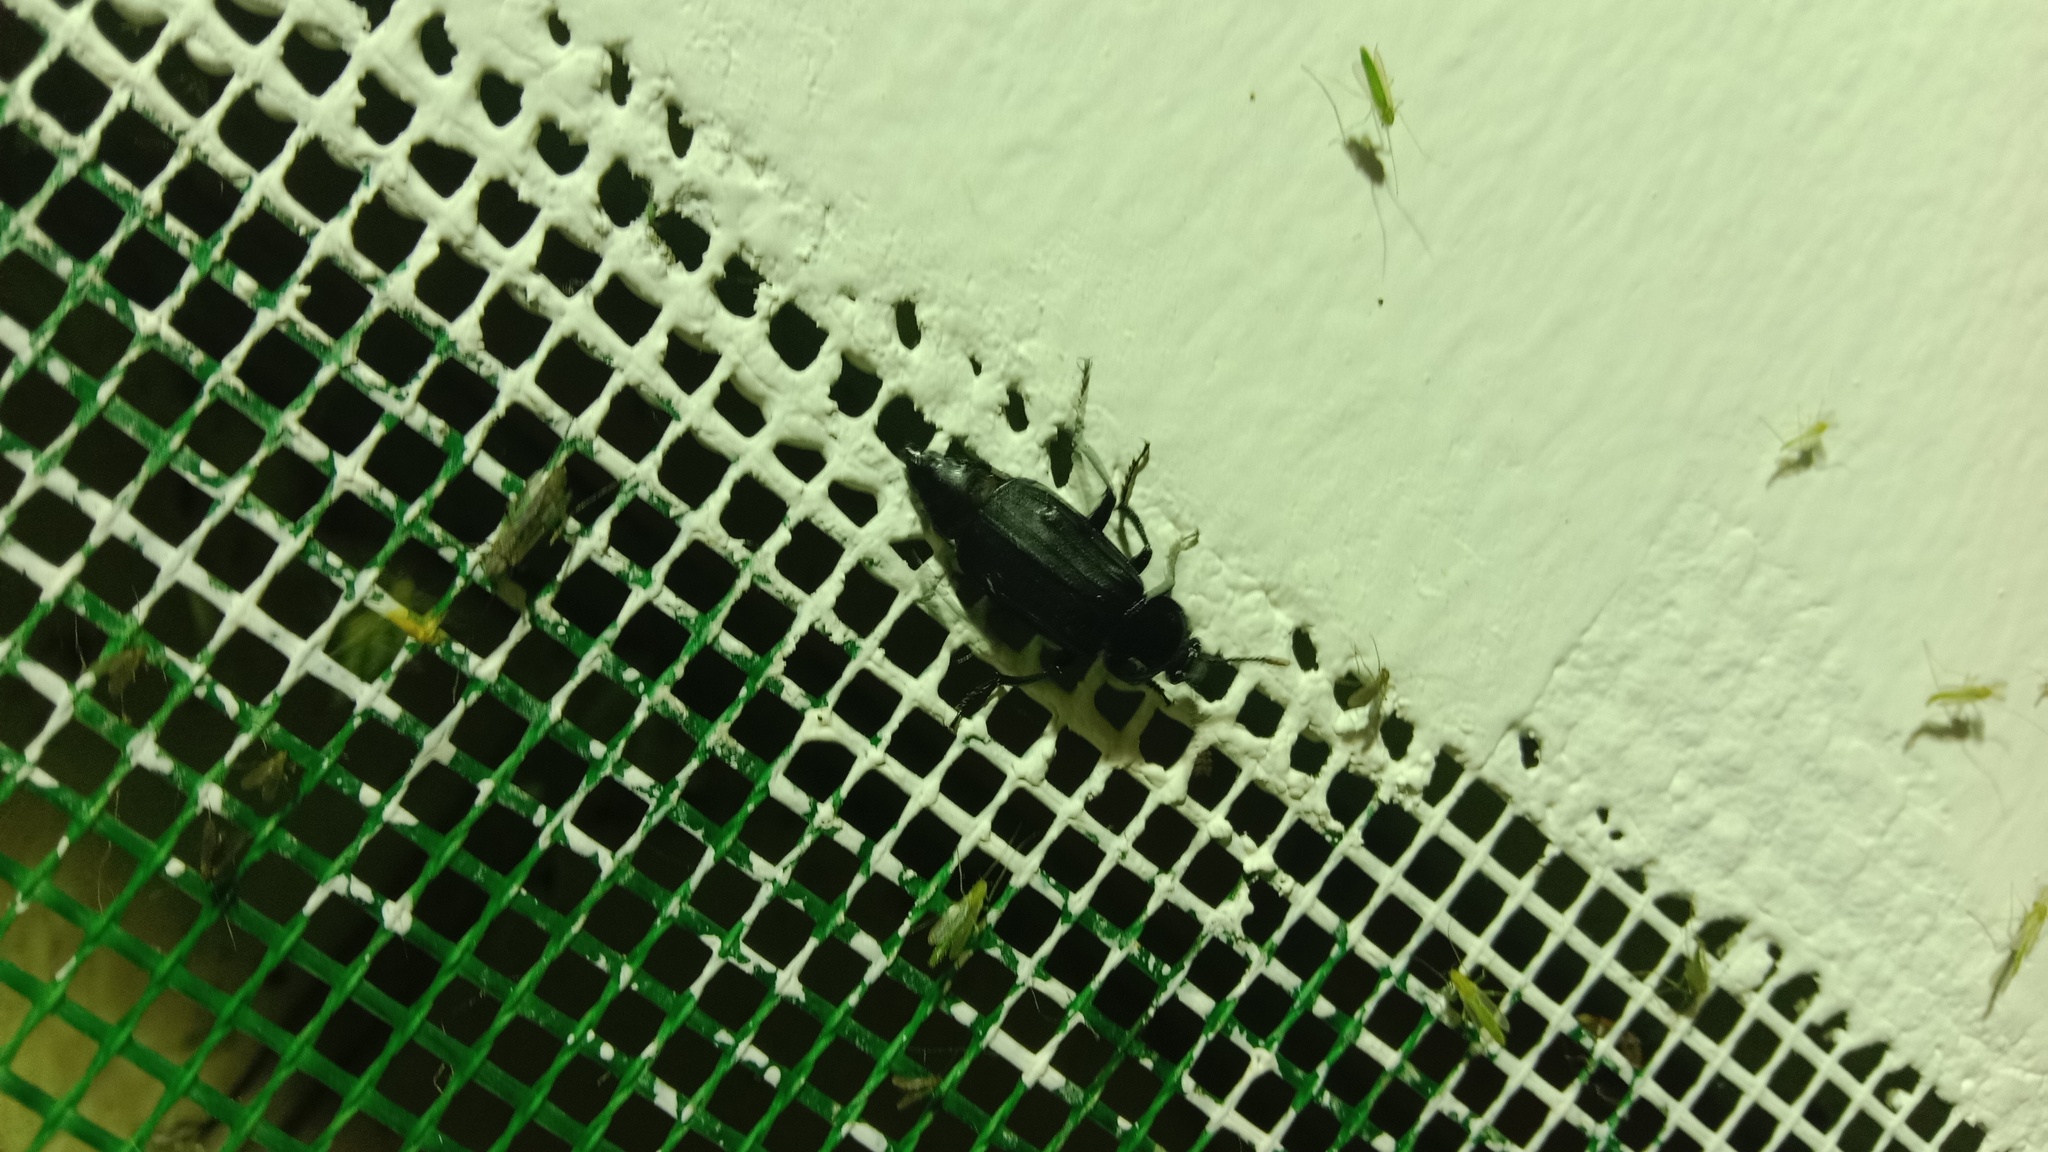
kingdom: Animalia
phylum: Arthropoda
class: Insecta
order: Coleoptera
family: Staphylinidae
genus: Necrodes
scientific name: Necrodes littoralis
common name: Shore sexton beetle
